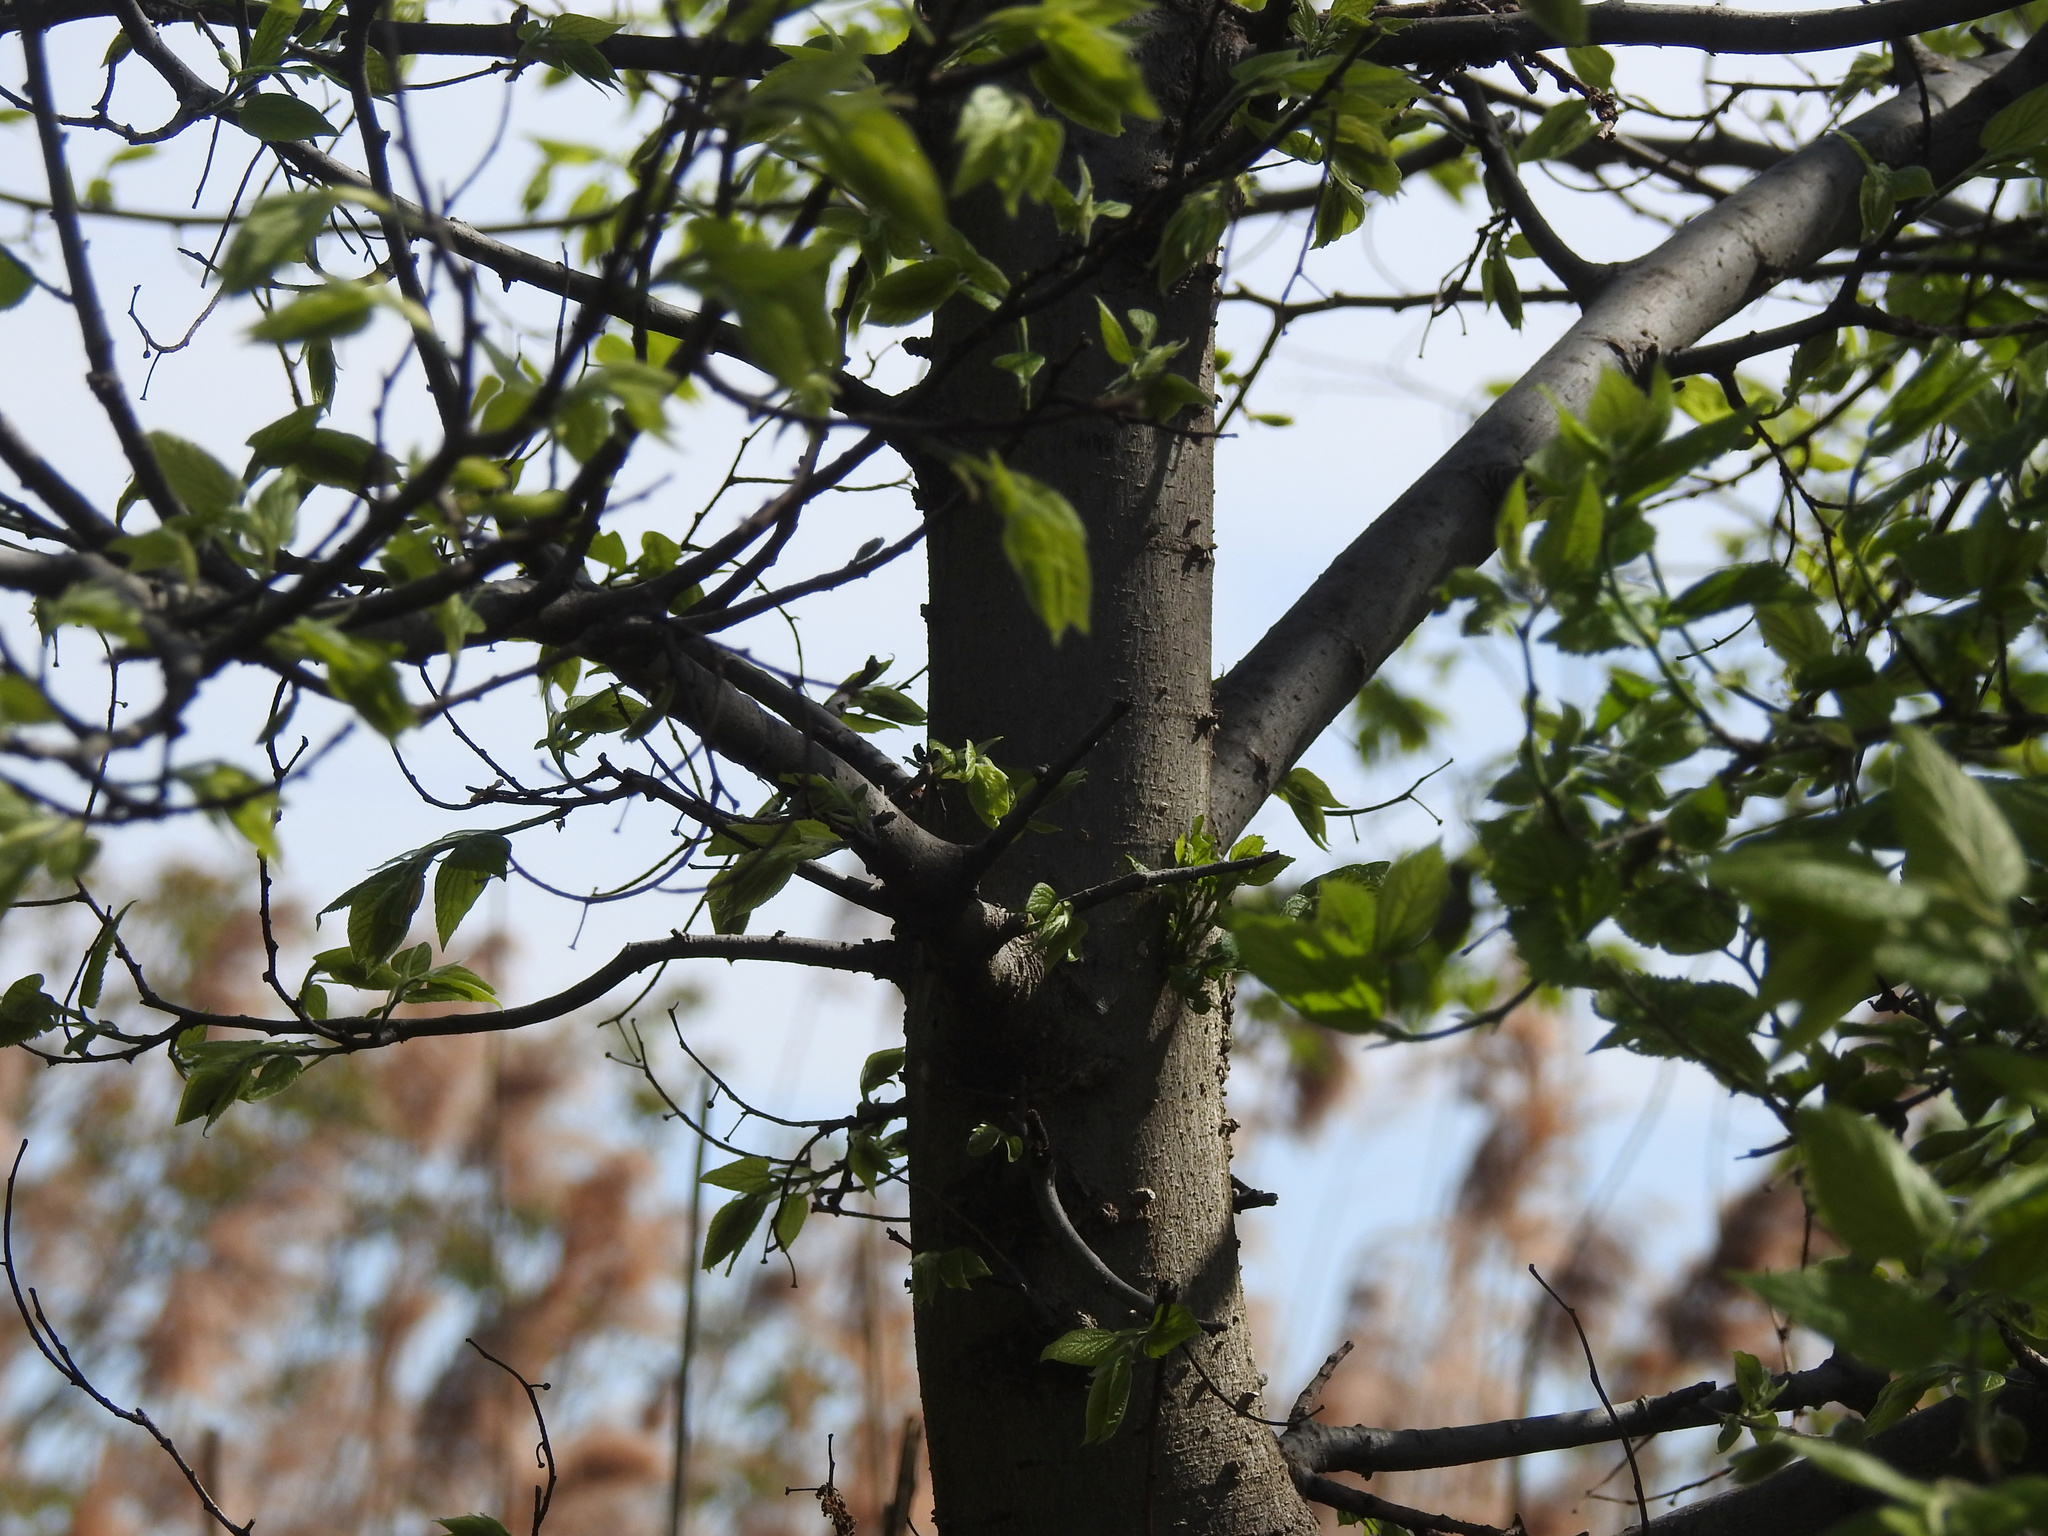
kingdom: Plantae
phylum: Tracheophyta
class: Magnoliopsida
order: Rosales
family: Cannabaceae
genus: Celtis
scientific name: Celtis occidentalis
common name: Common hackberry
